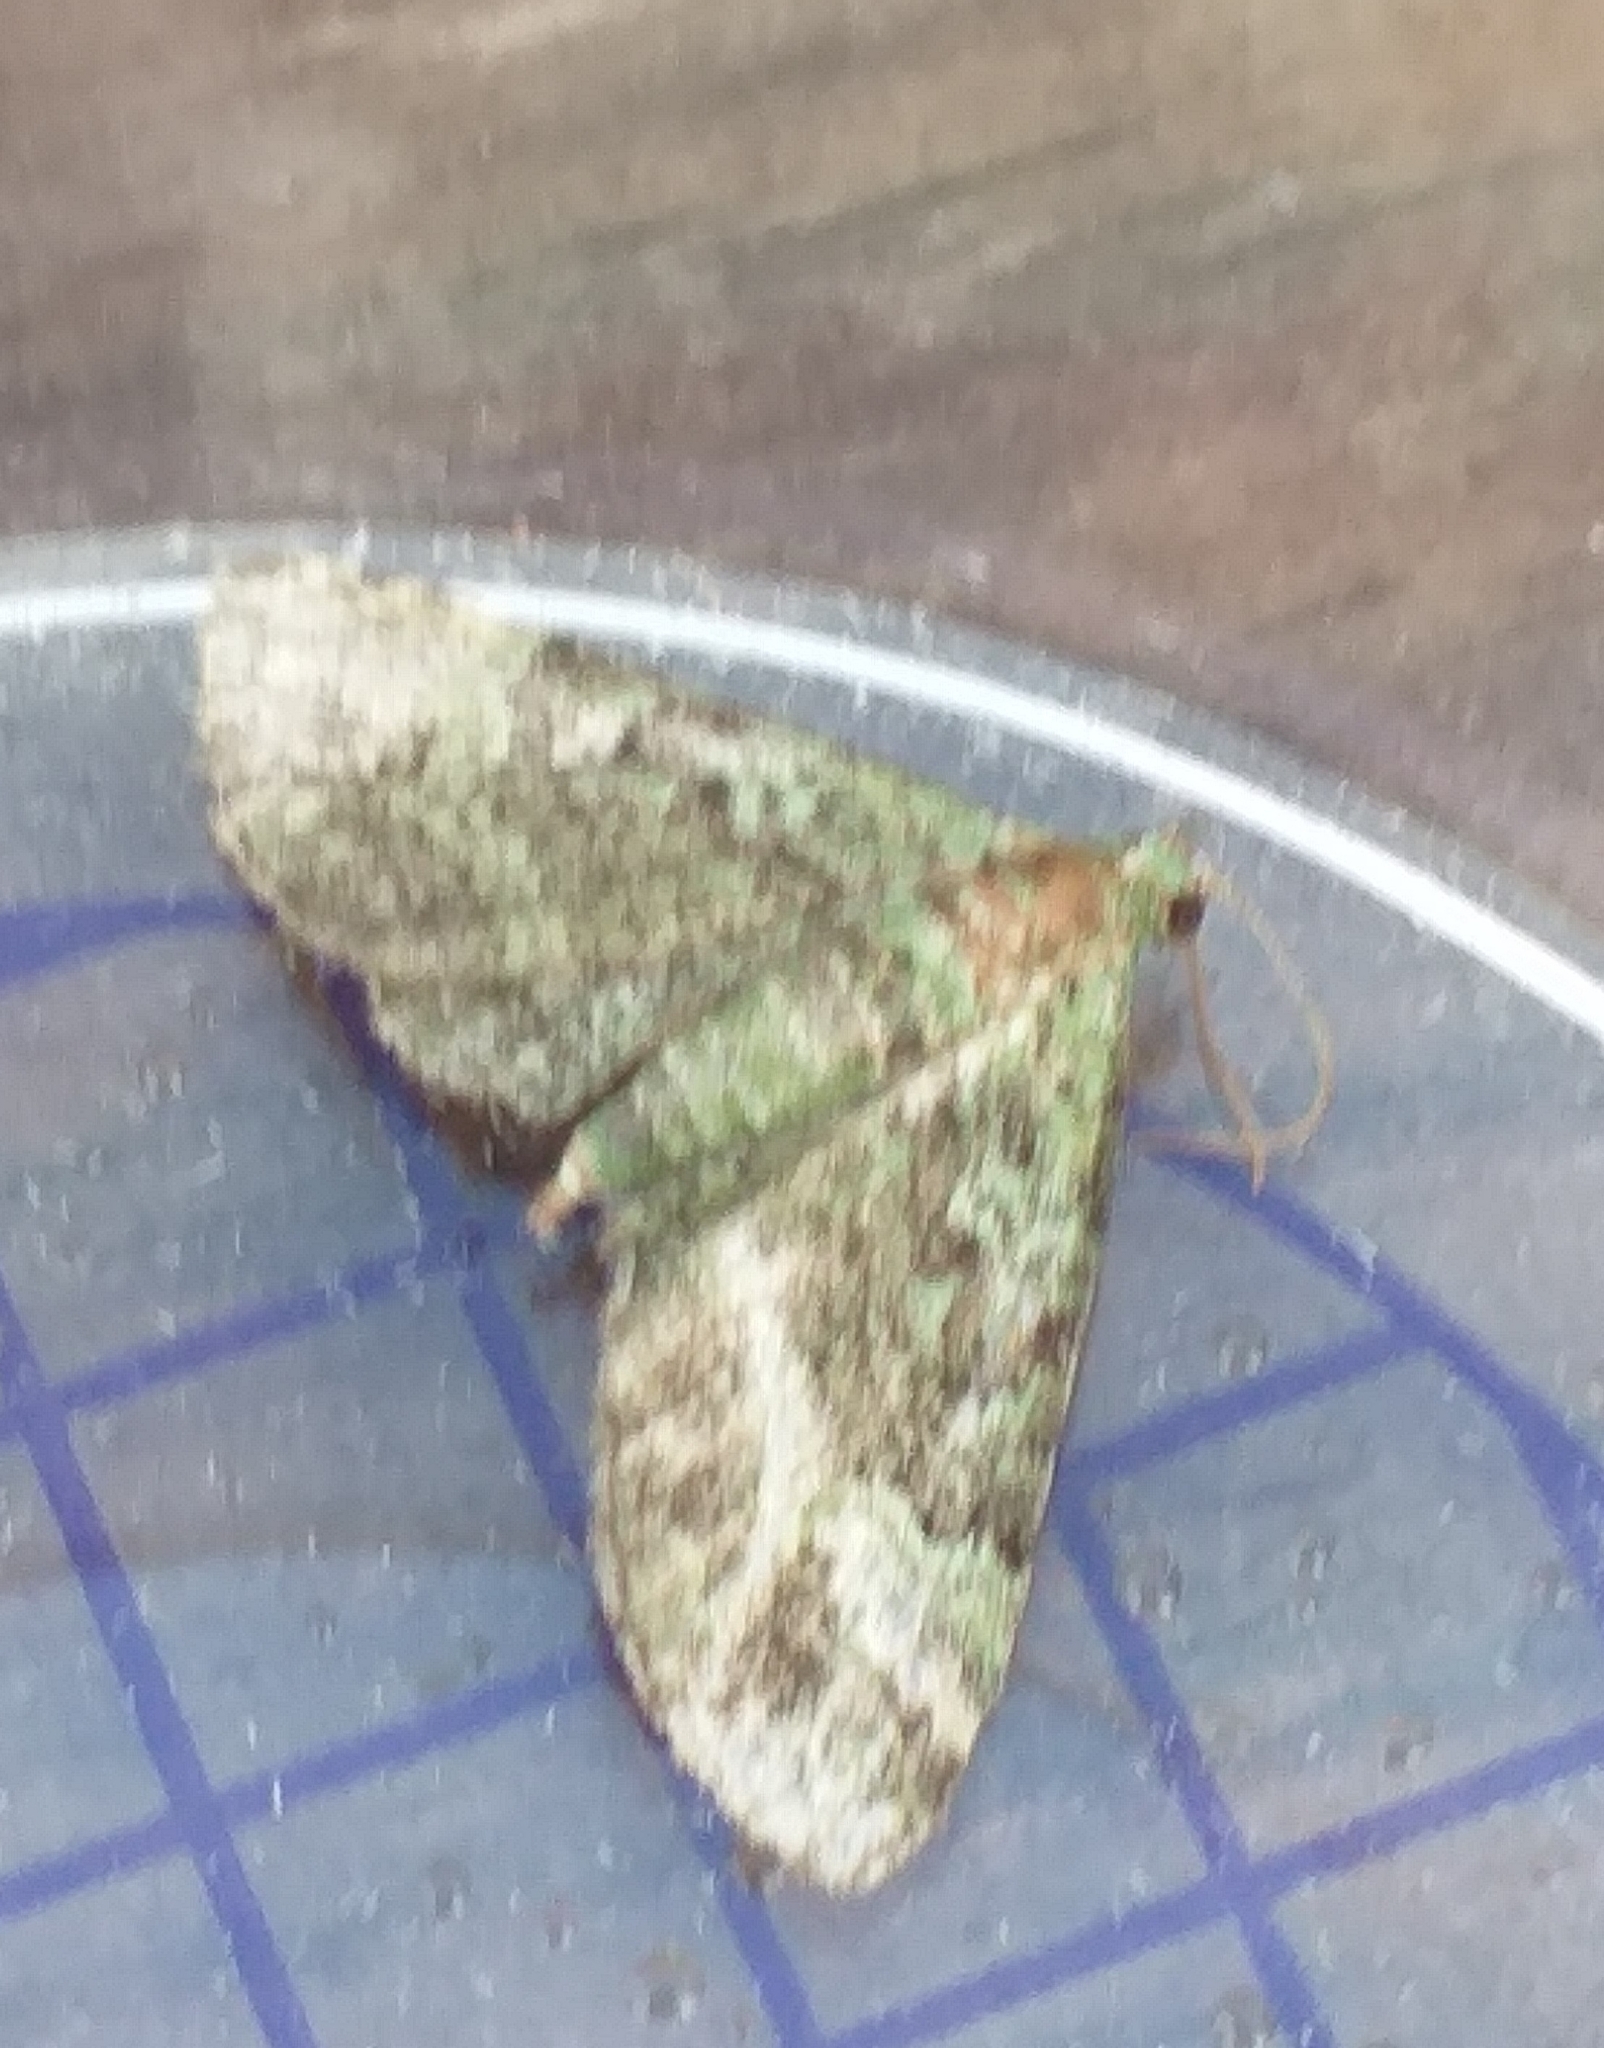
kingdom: Animalia
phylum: Arthropoda
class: Insecta
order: Lepidoptera
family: Geometridae
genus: Pasiphila
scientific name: Pasiphila rectangulata
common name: Green pug
